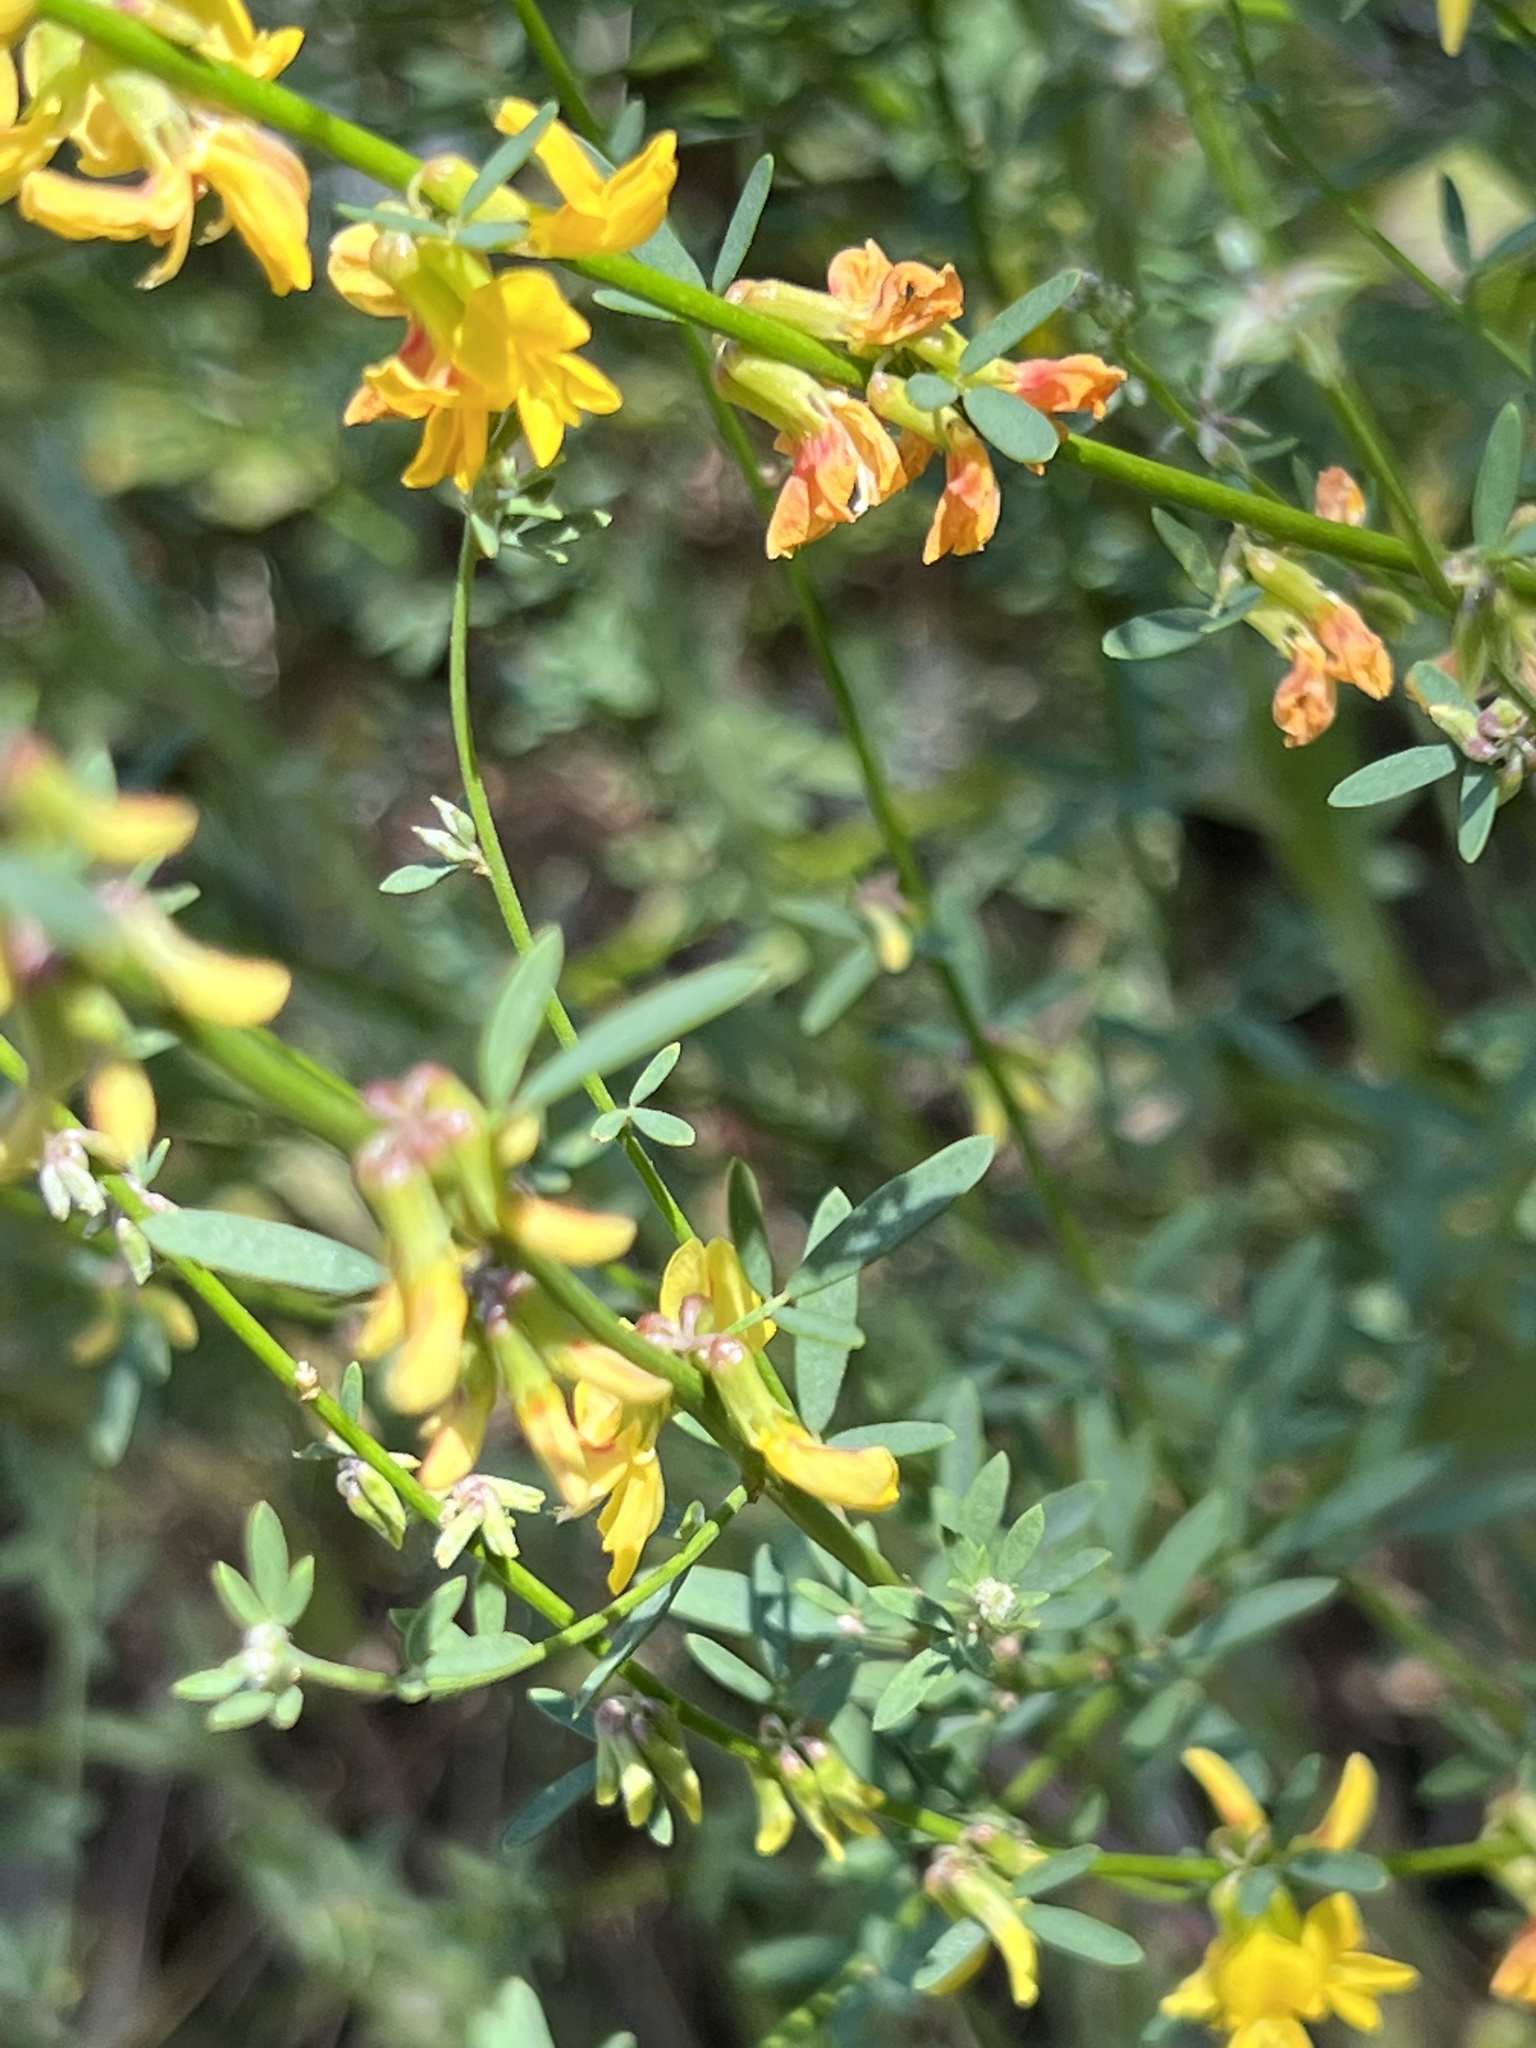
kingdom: Plantae
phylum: Tracheophyta
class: Magnoliopsida
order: Fabales
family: Fabaceae
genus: Acmispon
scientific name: Acmispon glaber
